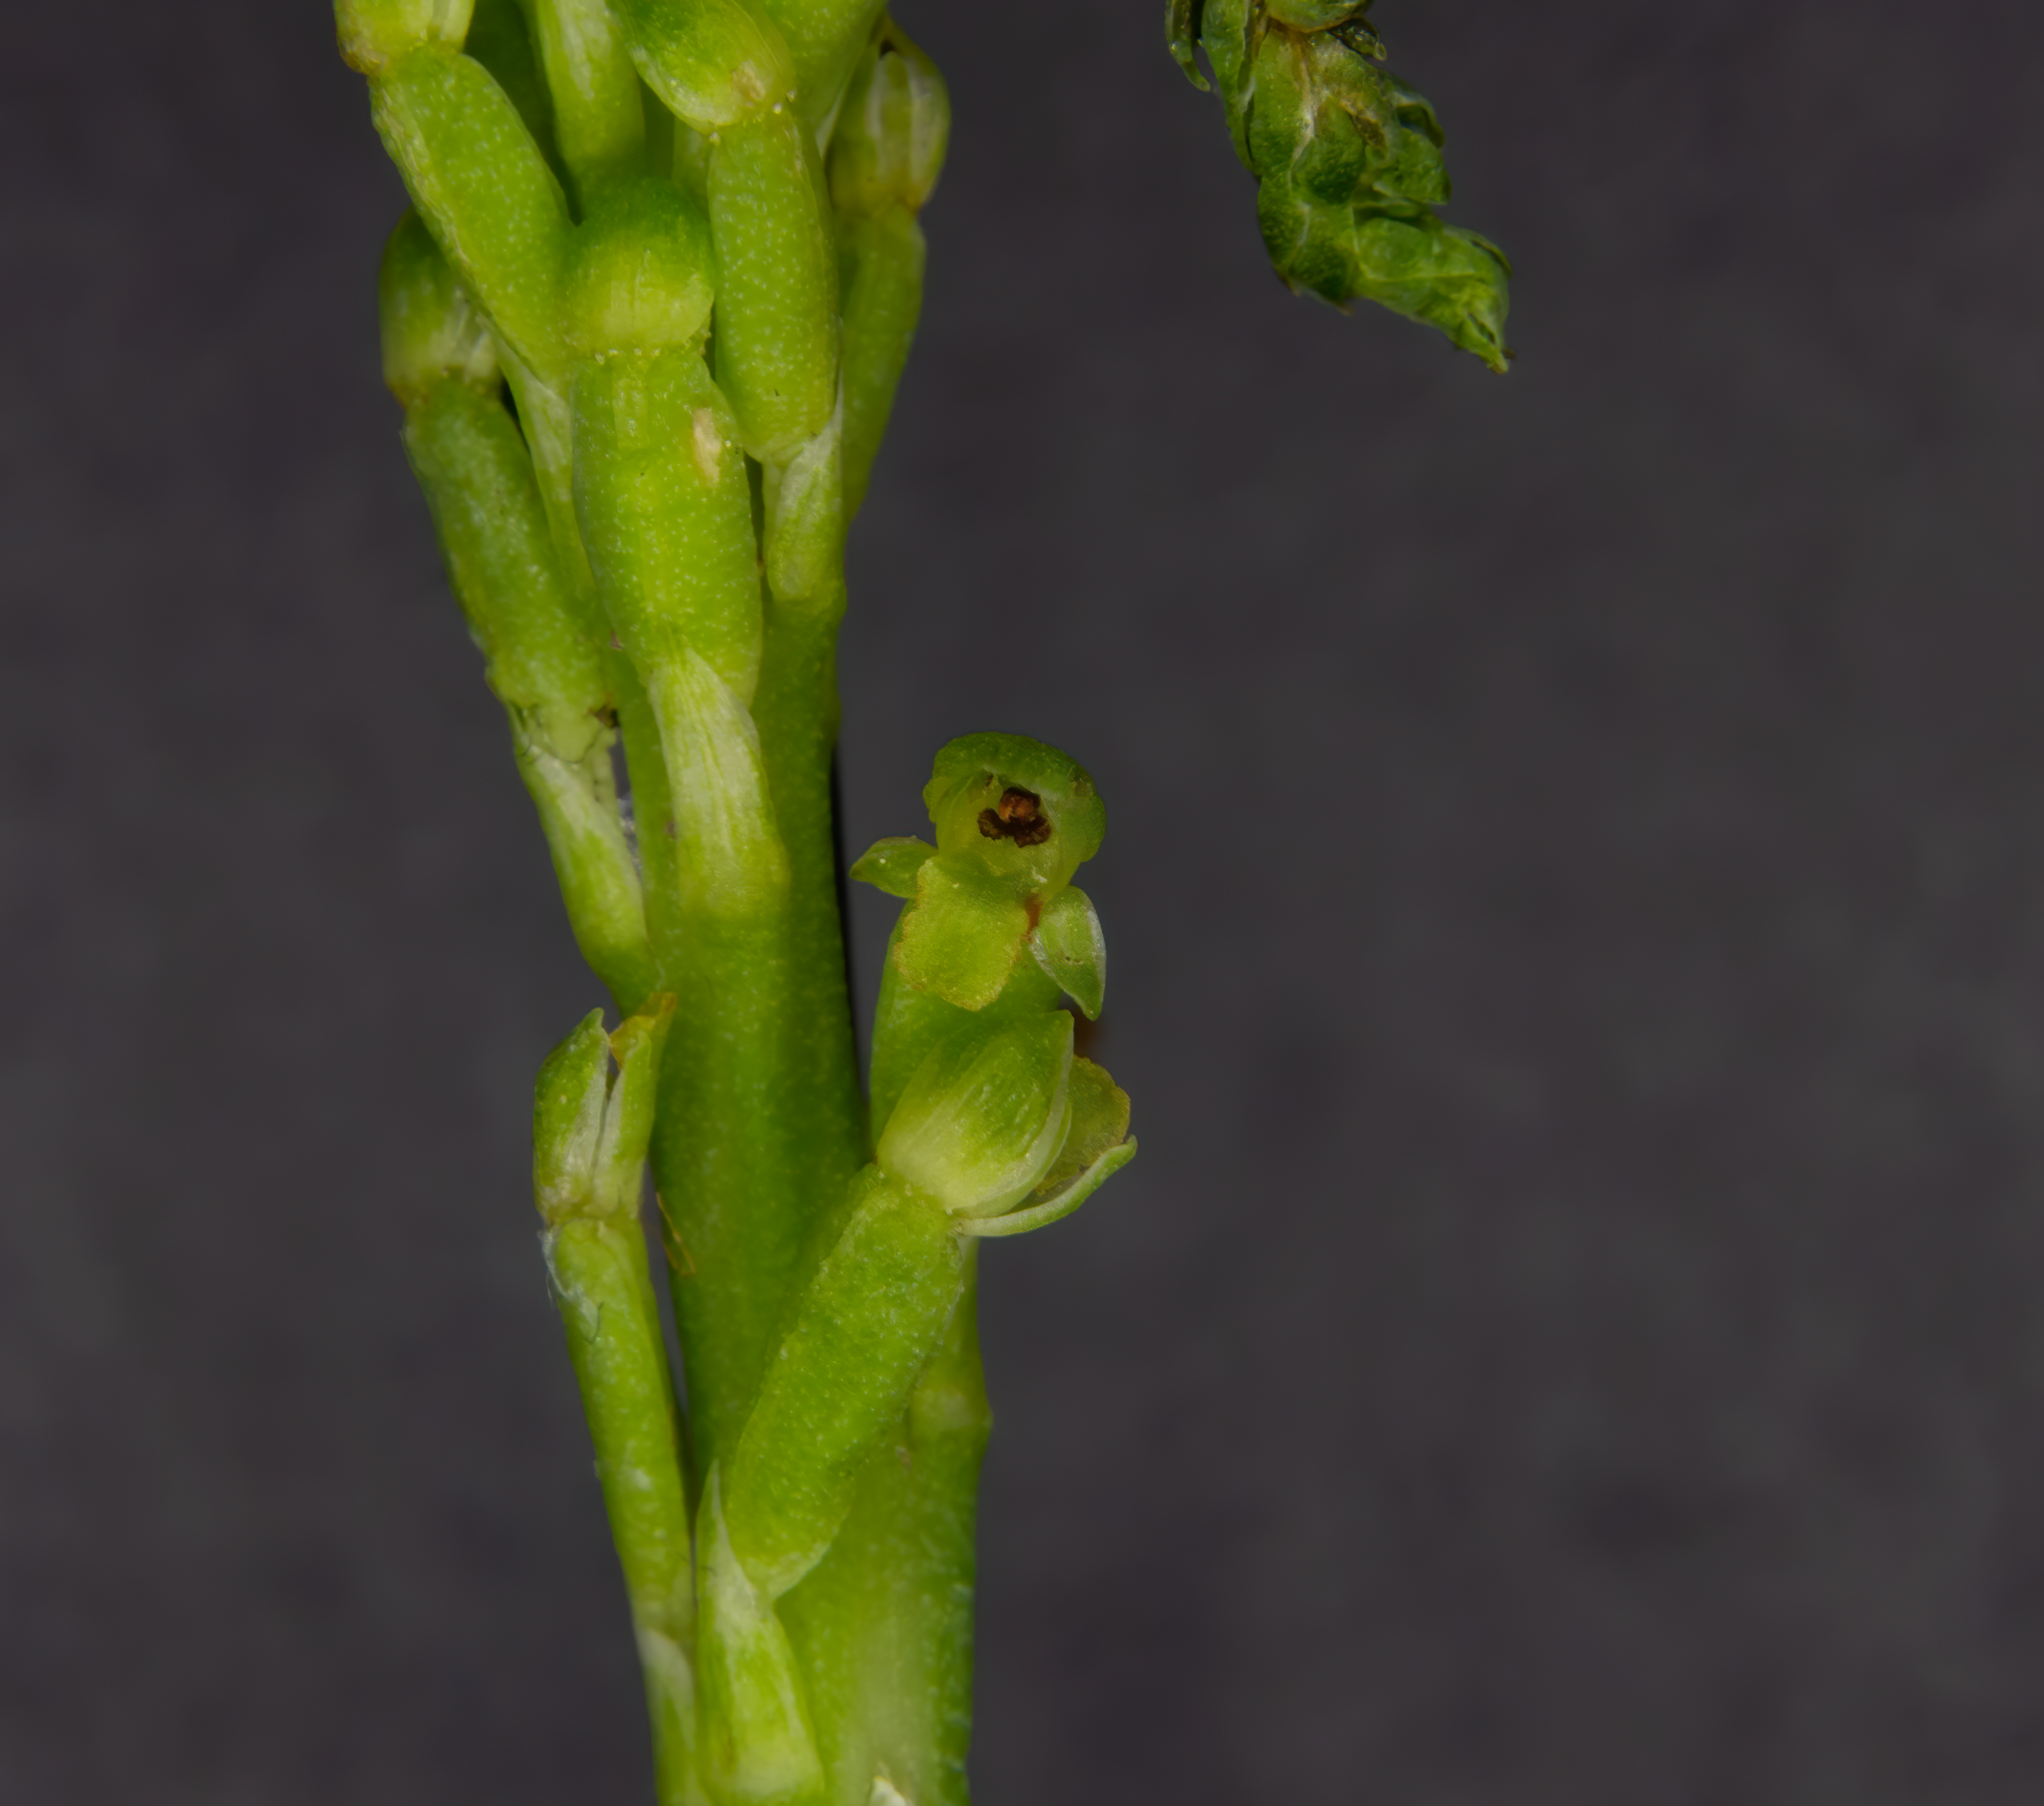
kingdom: Plantae
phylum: Tracheophyta
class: Liliopsida
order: Asparagales
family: Orchidaceae
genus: Microtis
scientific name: Microtis unifolia
